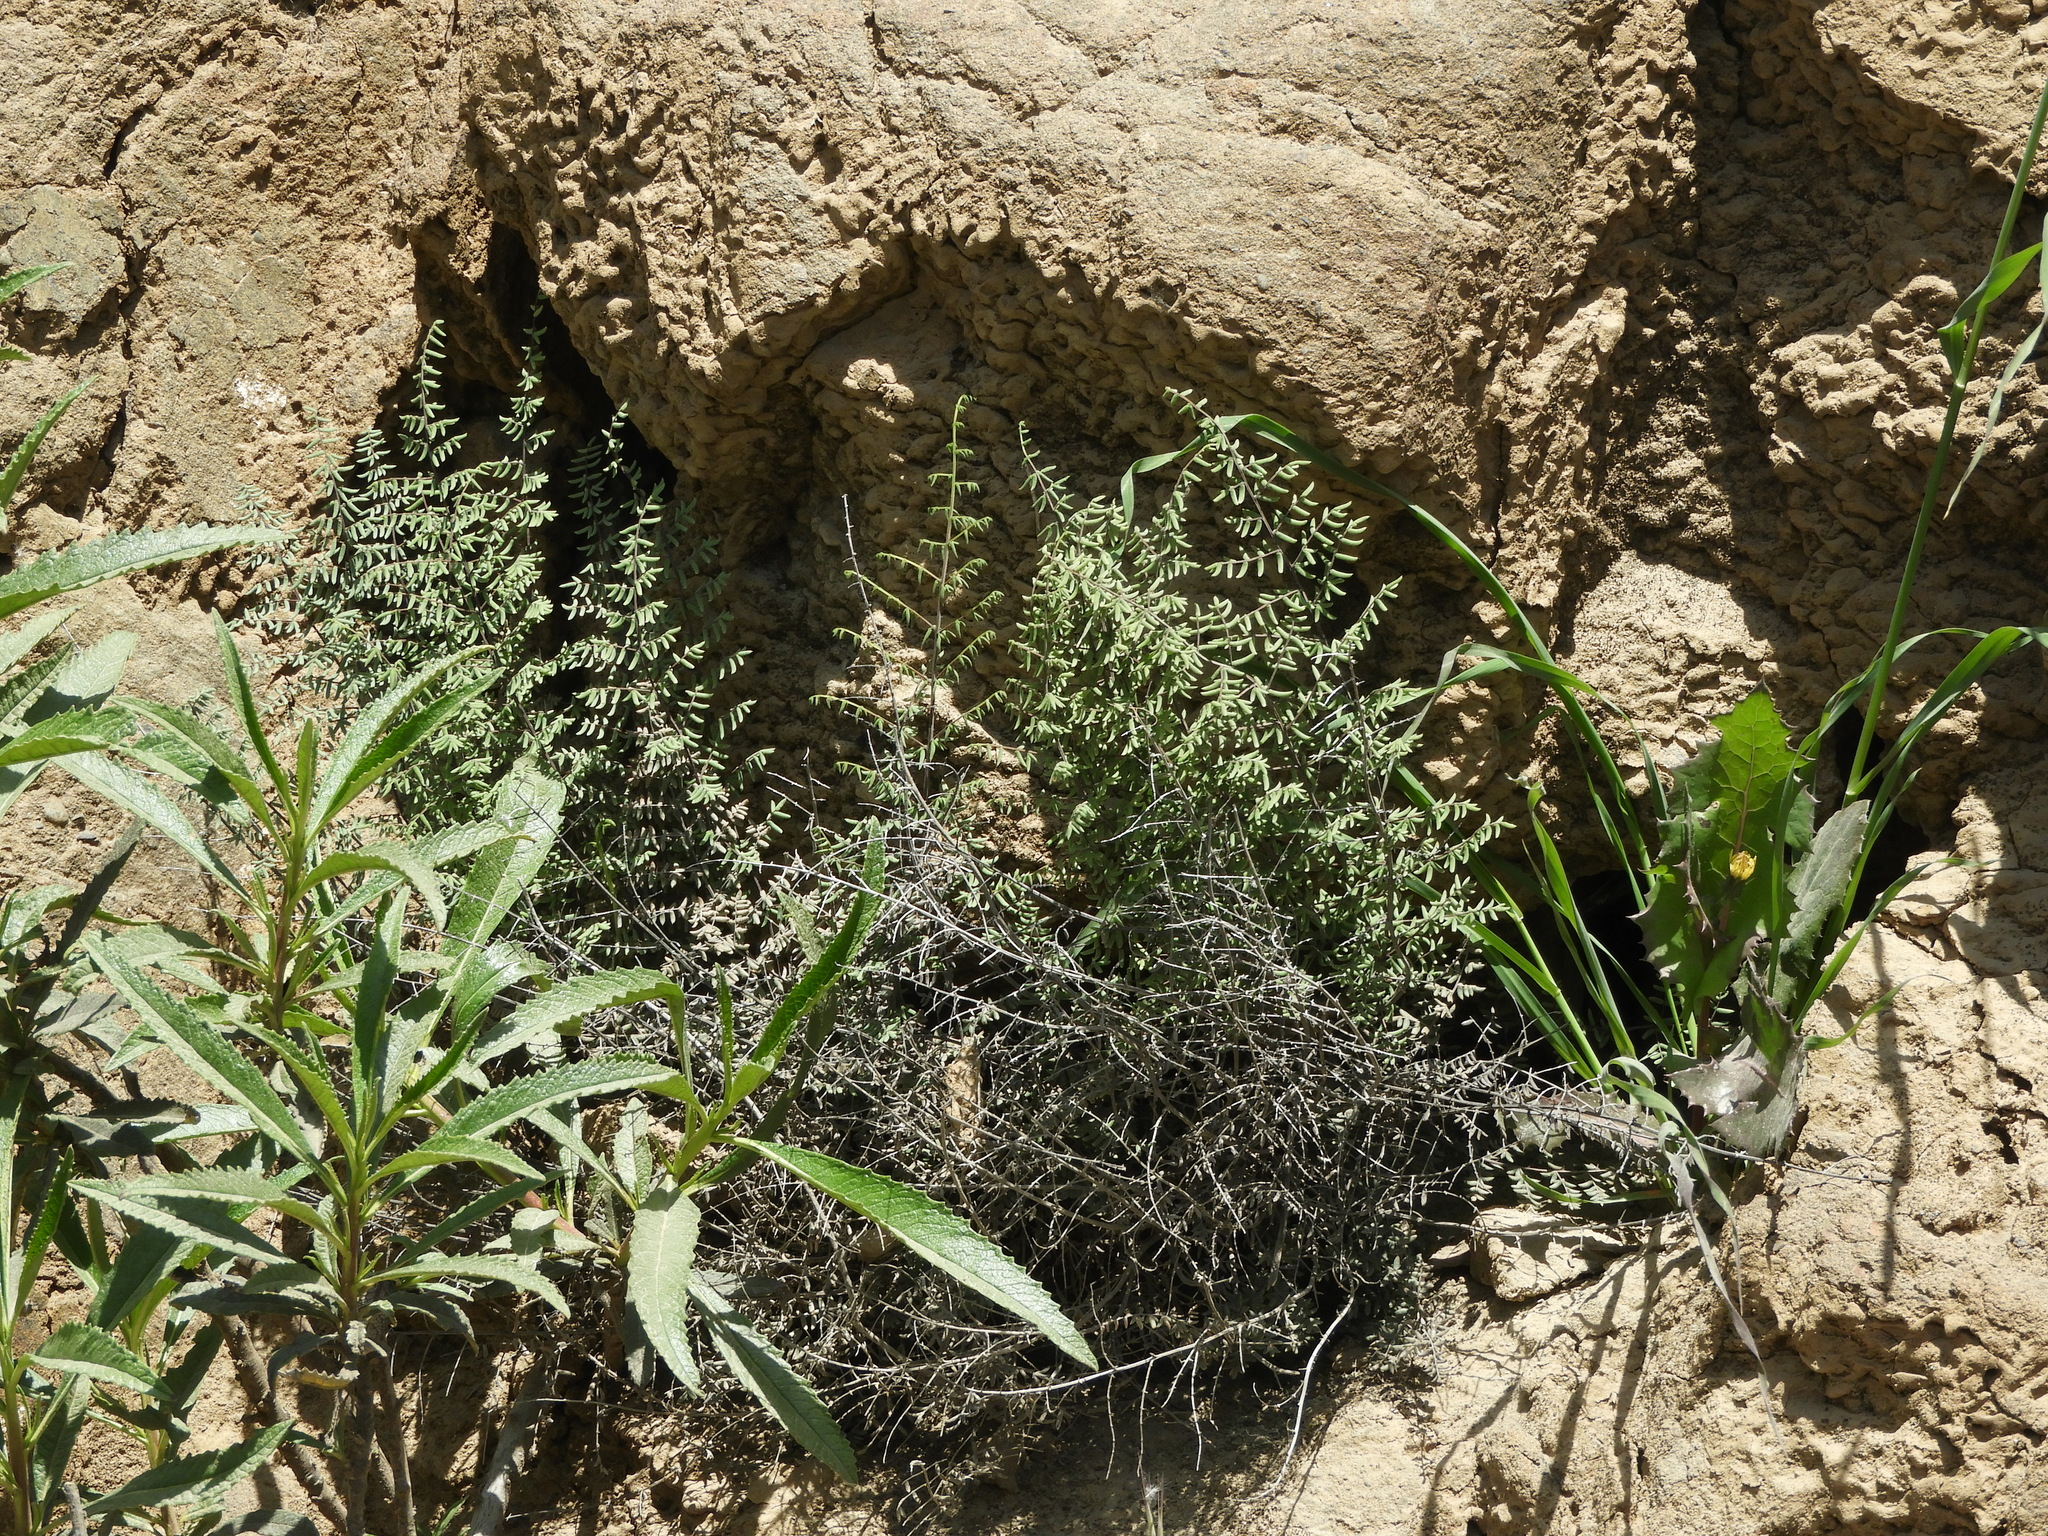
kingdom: Plantae
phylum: Tracheophyta
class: Polypodiopsida
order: Polypodiales
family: Pteridaceae
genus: Pellaea
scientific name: Pellaea mucronata
